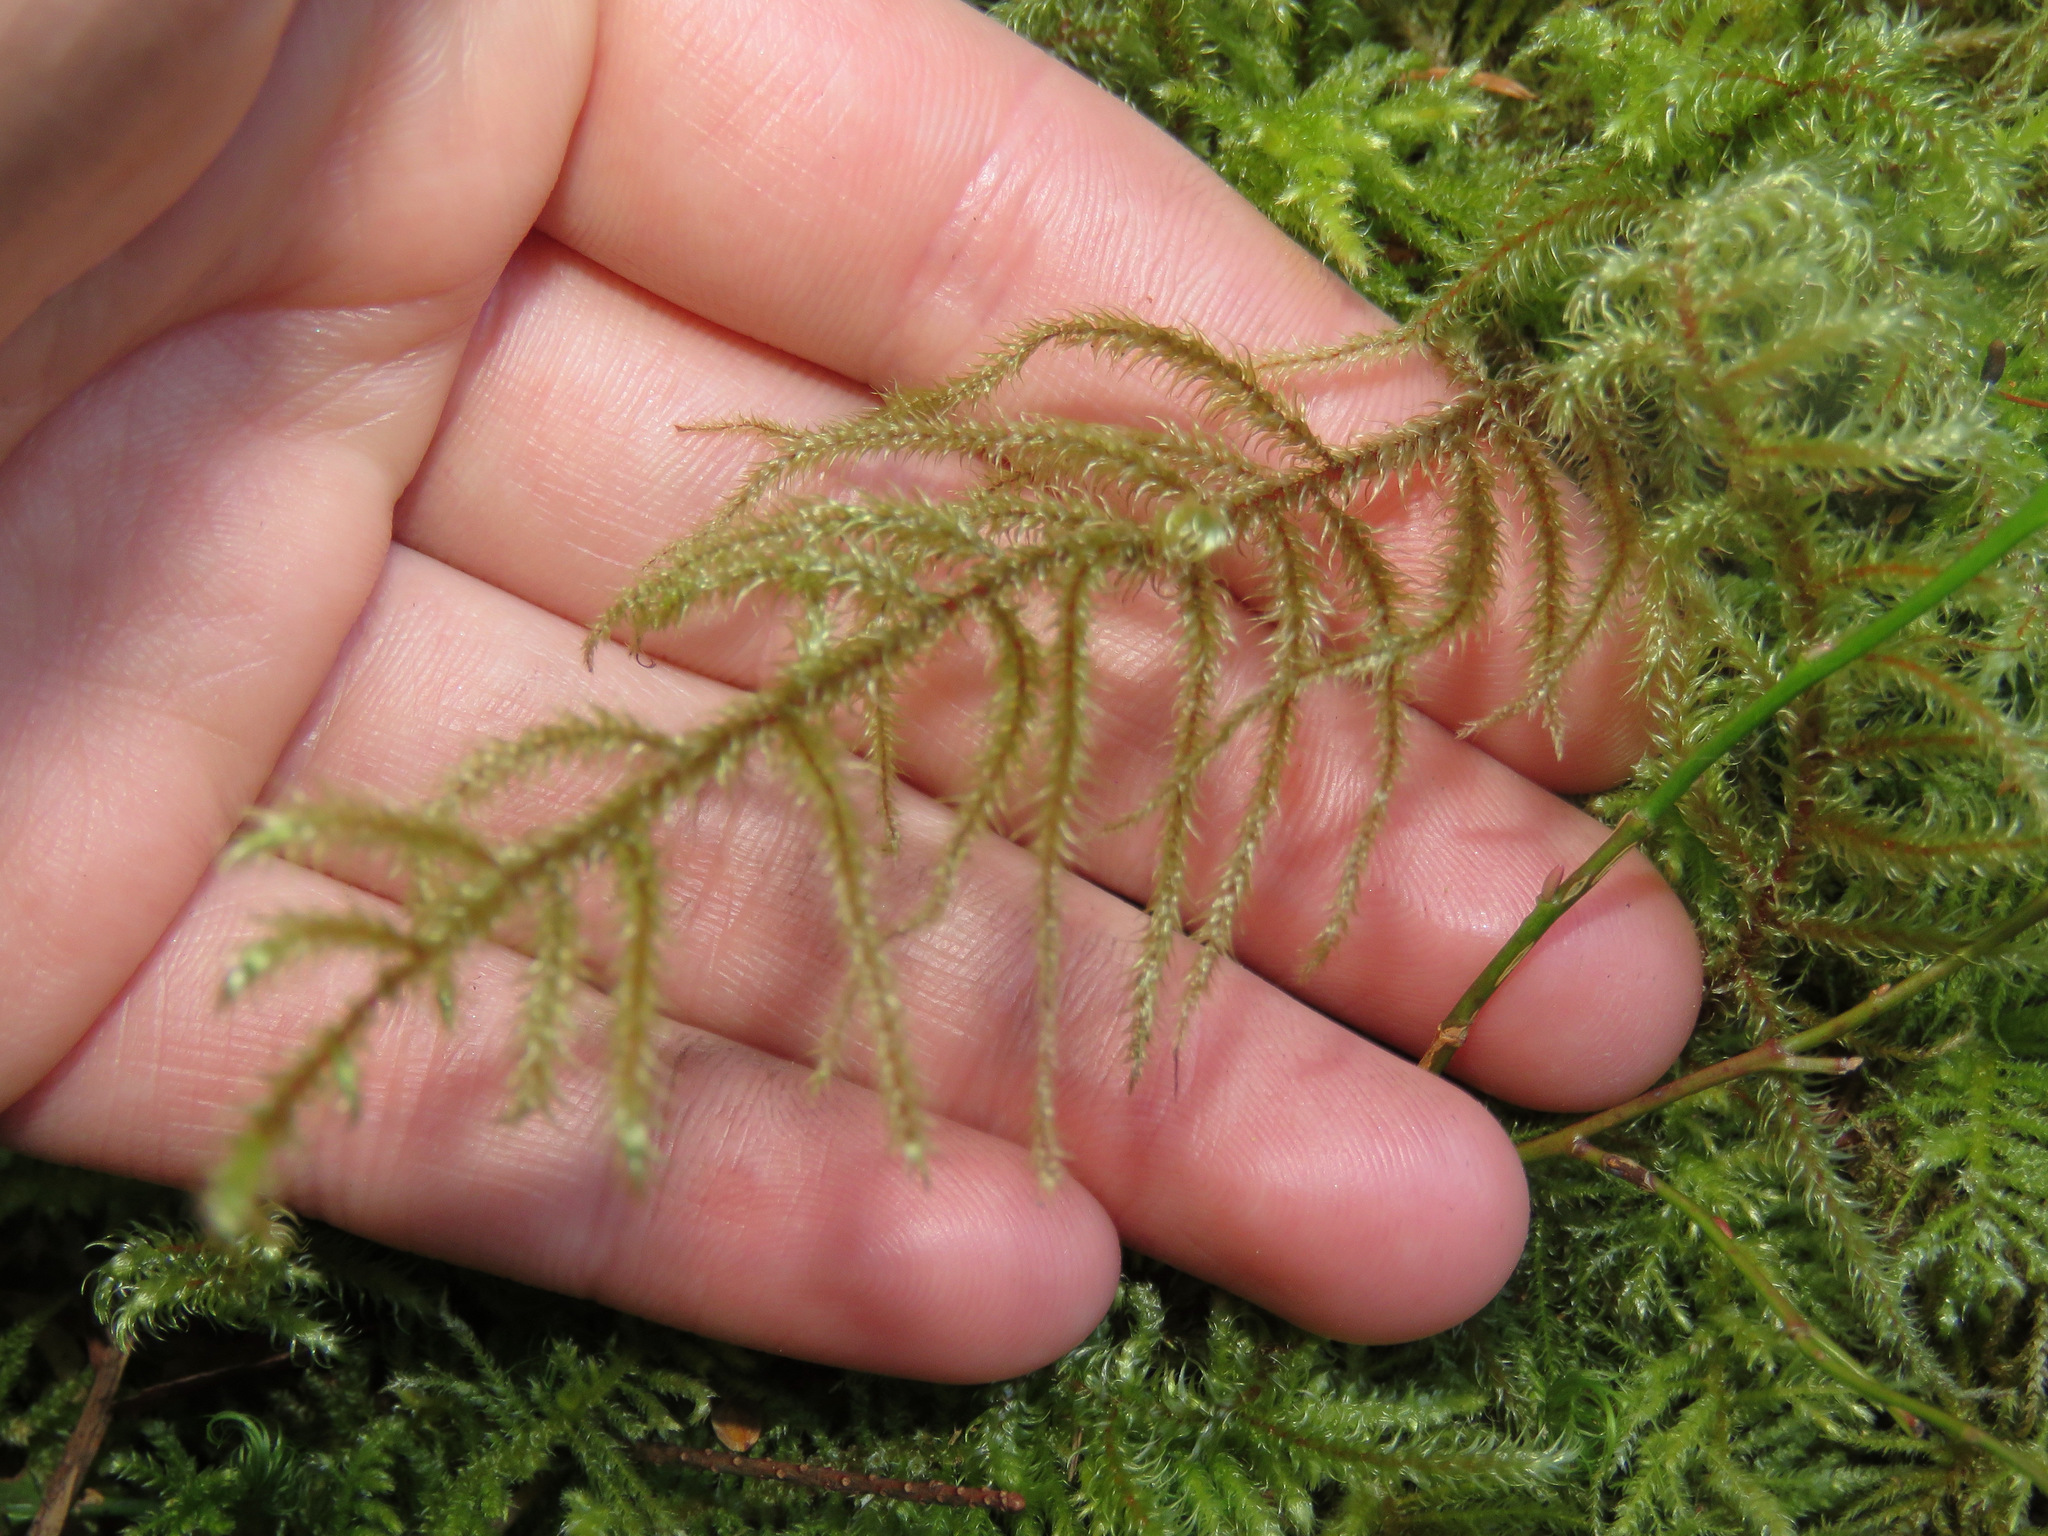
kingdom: Plantae
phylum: Bryophyta
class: Bryopsida
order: Hypnales
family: Hylocomiaceae
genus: Rhytidiadelphus
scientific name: Rhytidiadelphus loreus
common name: Lanky moss
